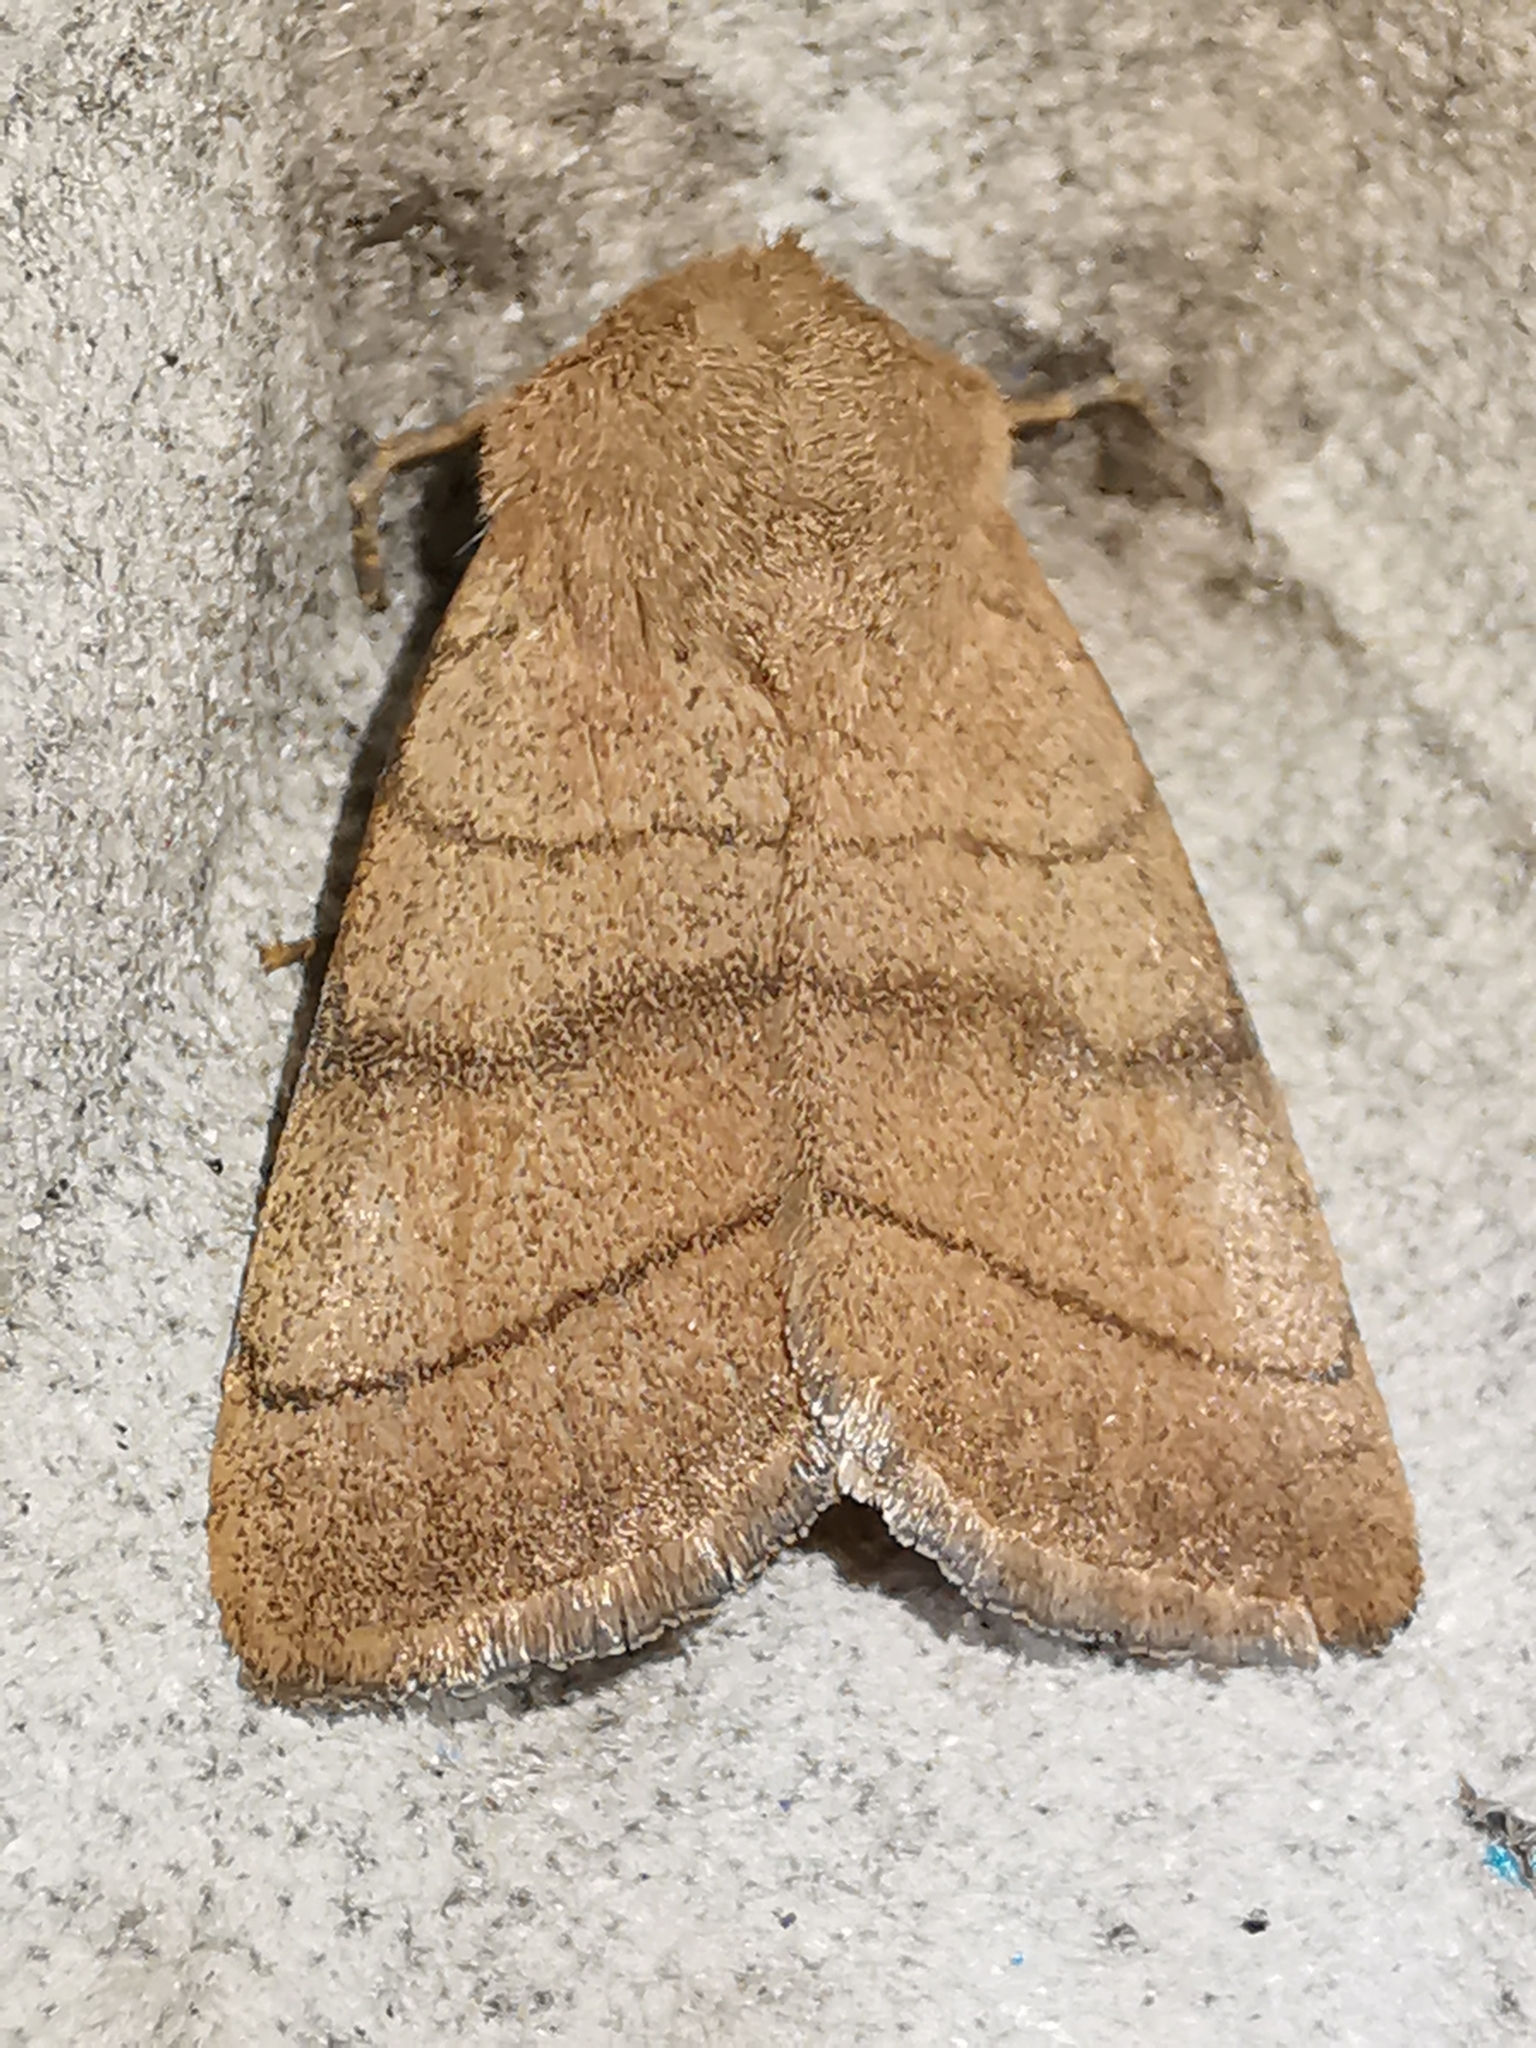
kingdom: Animalia
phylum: Arthropoda
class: Insecta
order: Lepidoptera
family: Noctuidae
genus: Charanyca
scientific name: Charanyca trigrammica
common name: Treble lines
